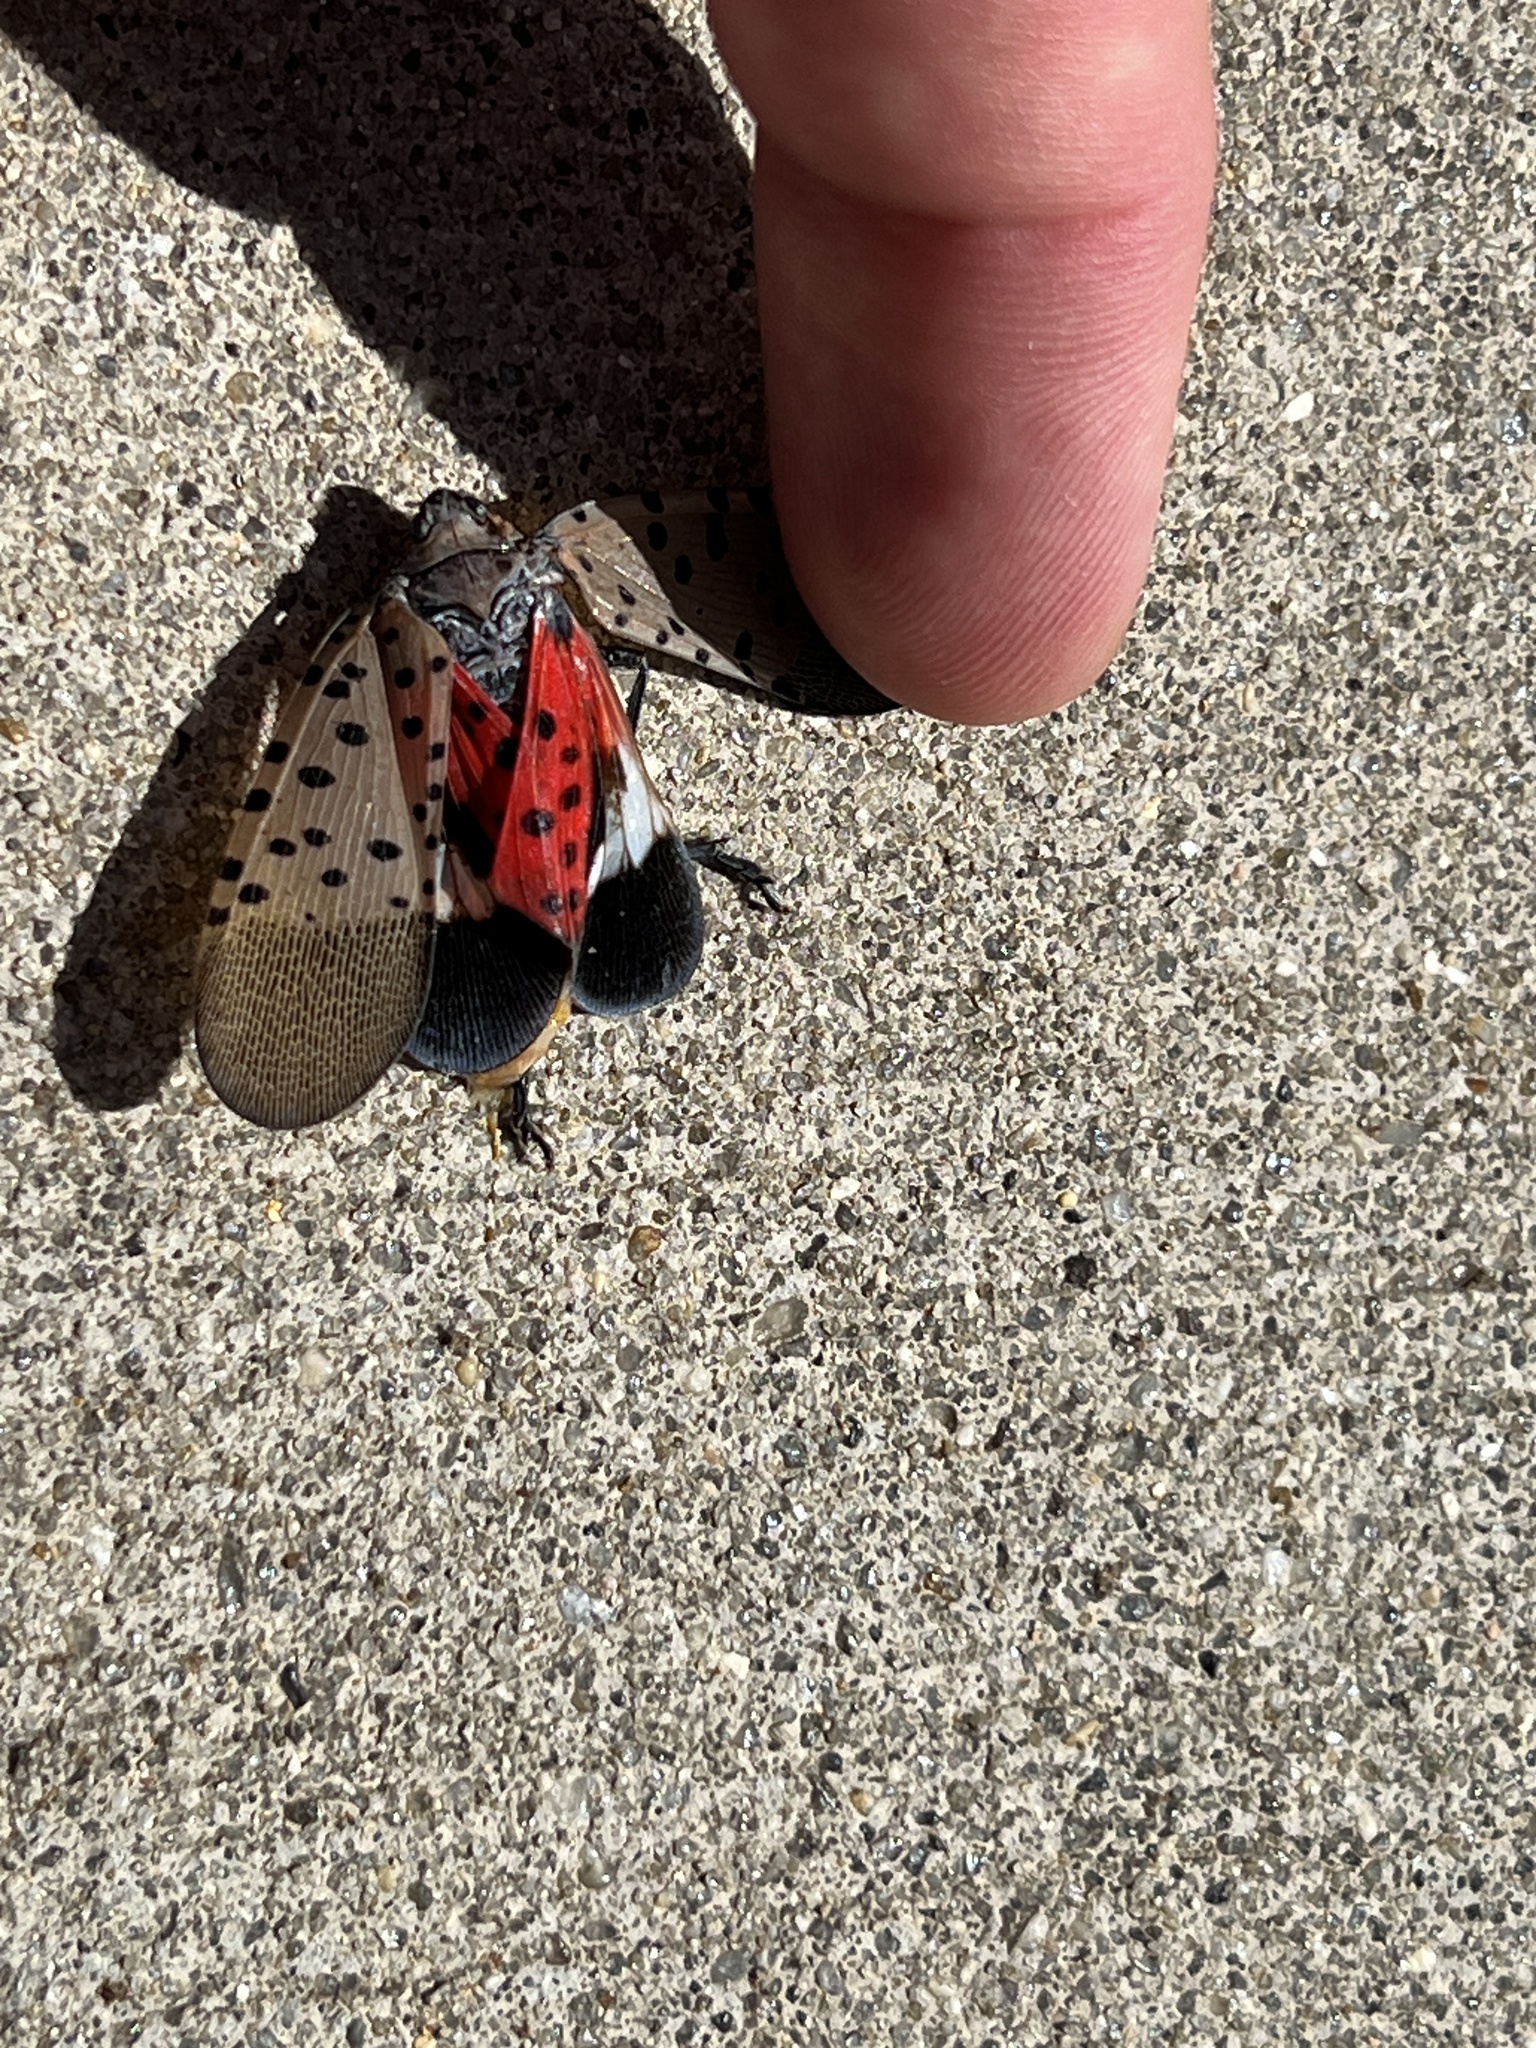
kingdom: Animalia
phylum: Arthropoda
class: Insecta
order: Hemiptera
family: Fulgoridae
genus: Lycorma
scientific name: Lycorma delicatula
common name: Spotted lanternfly
